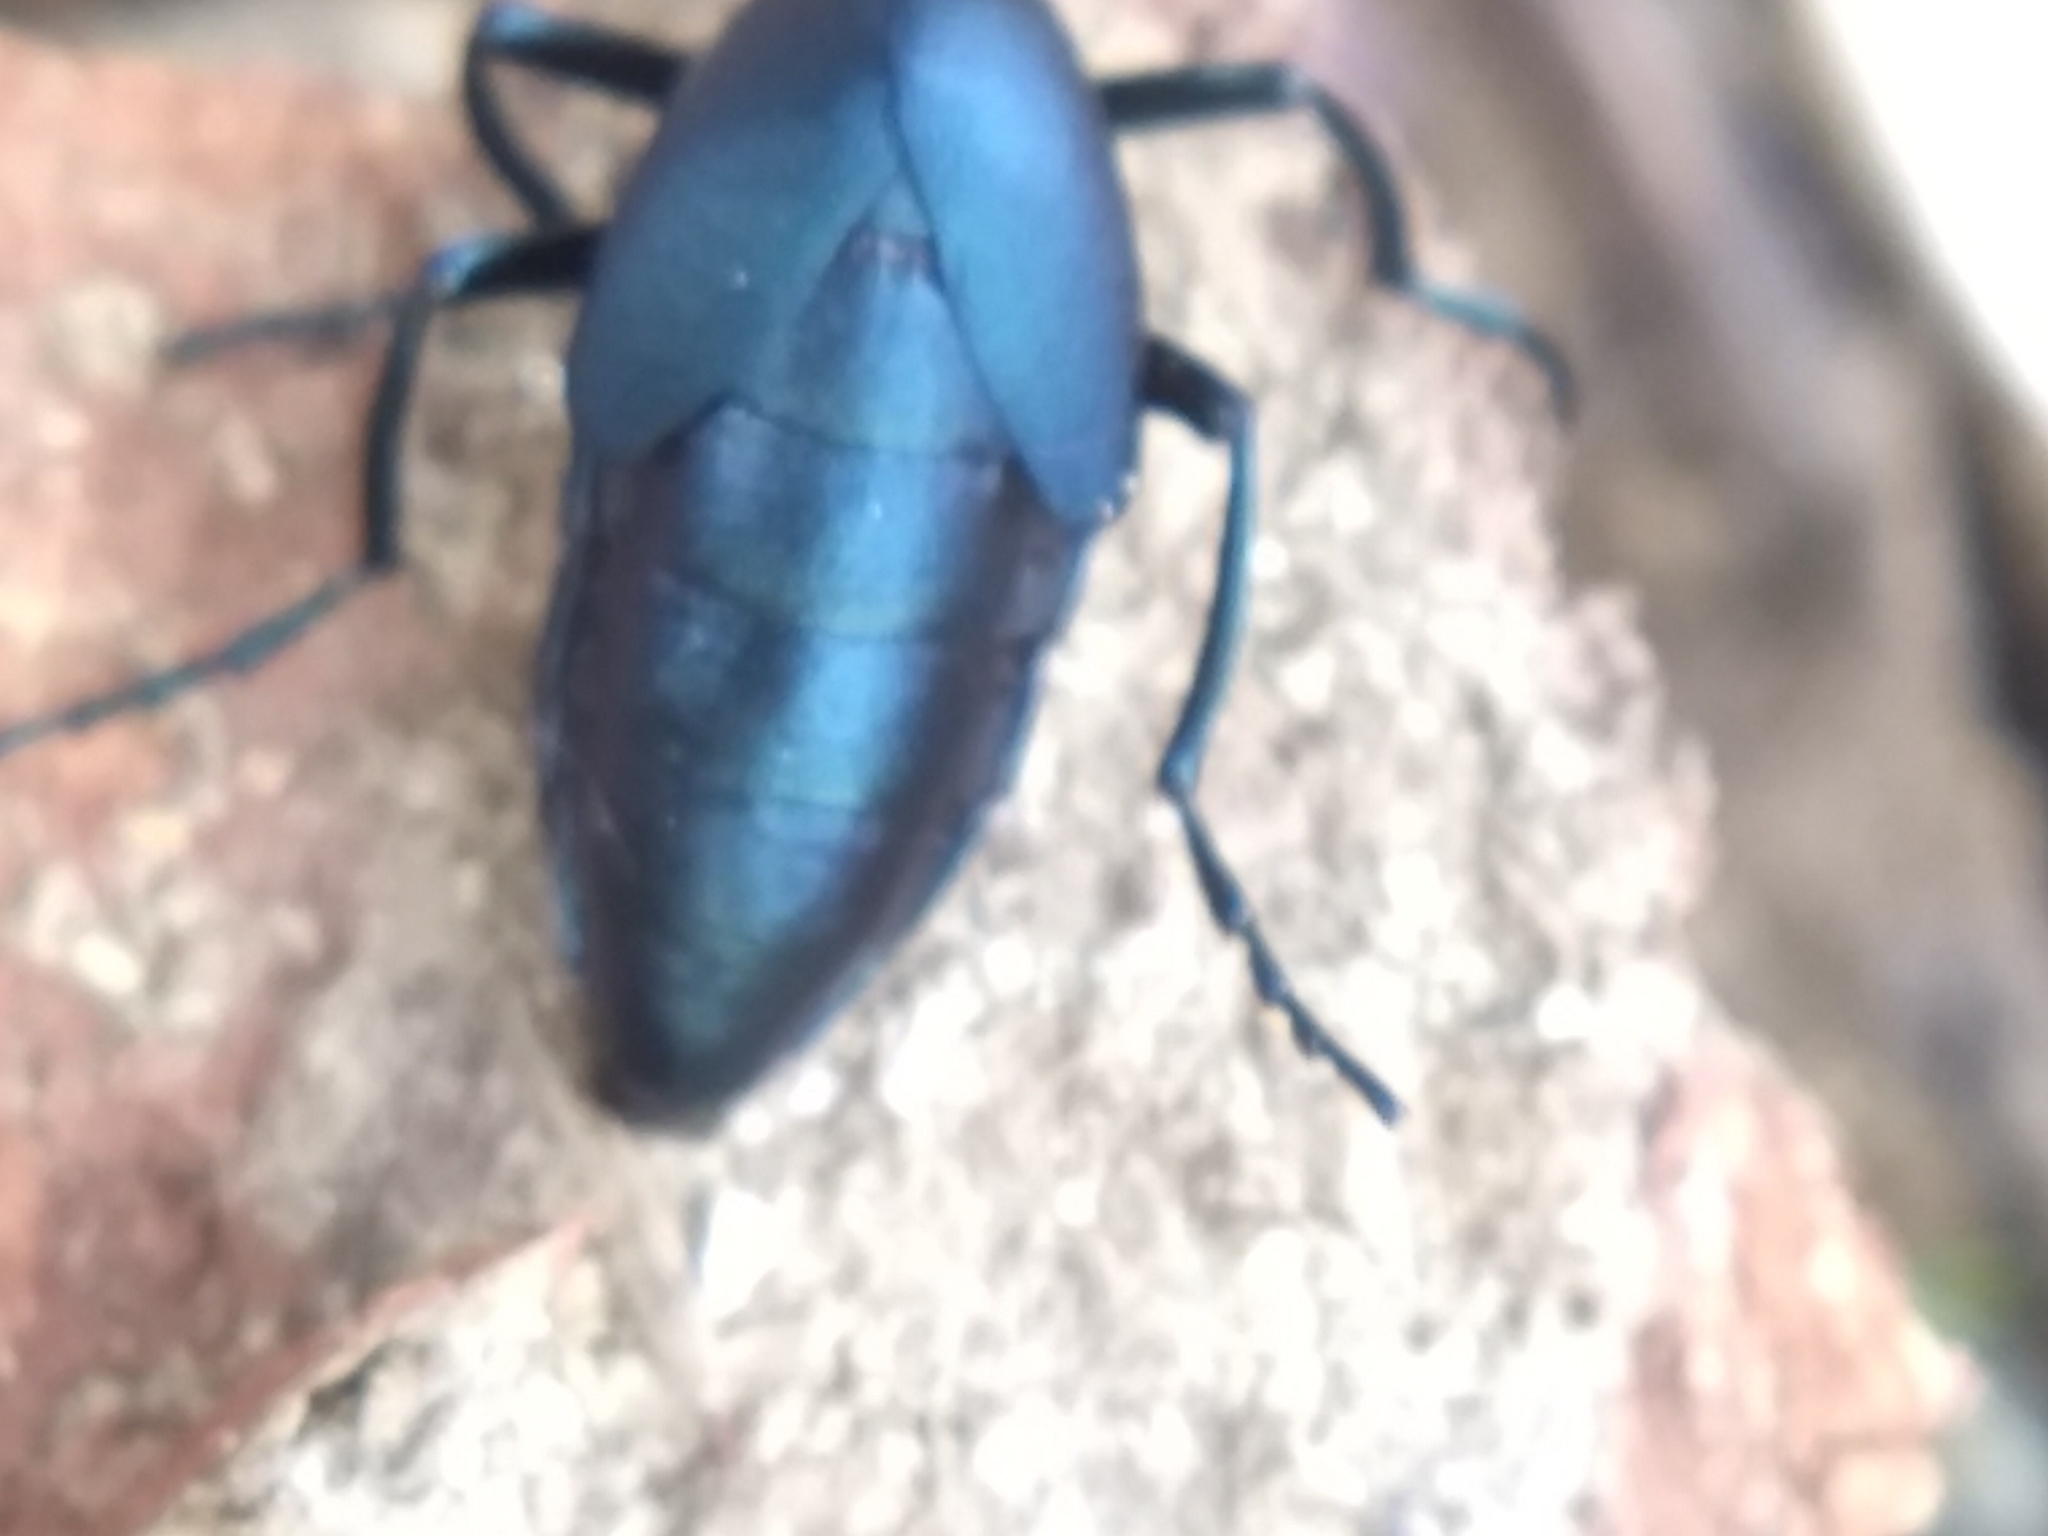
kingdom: Animalia
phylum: Arthropoda
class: Insecta
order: Coleoptera
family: Meloidae
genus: Meloe
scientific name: Meloe impressus
